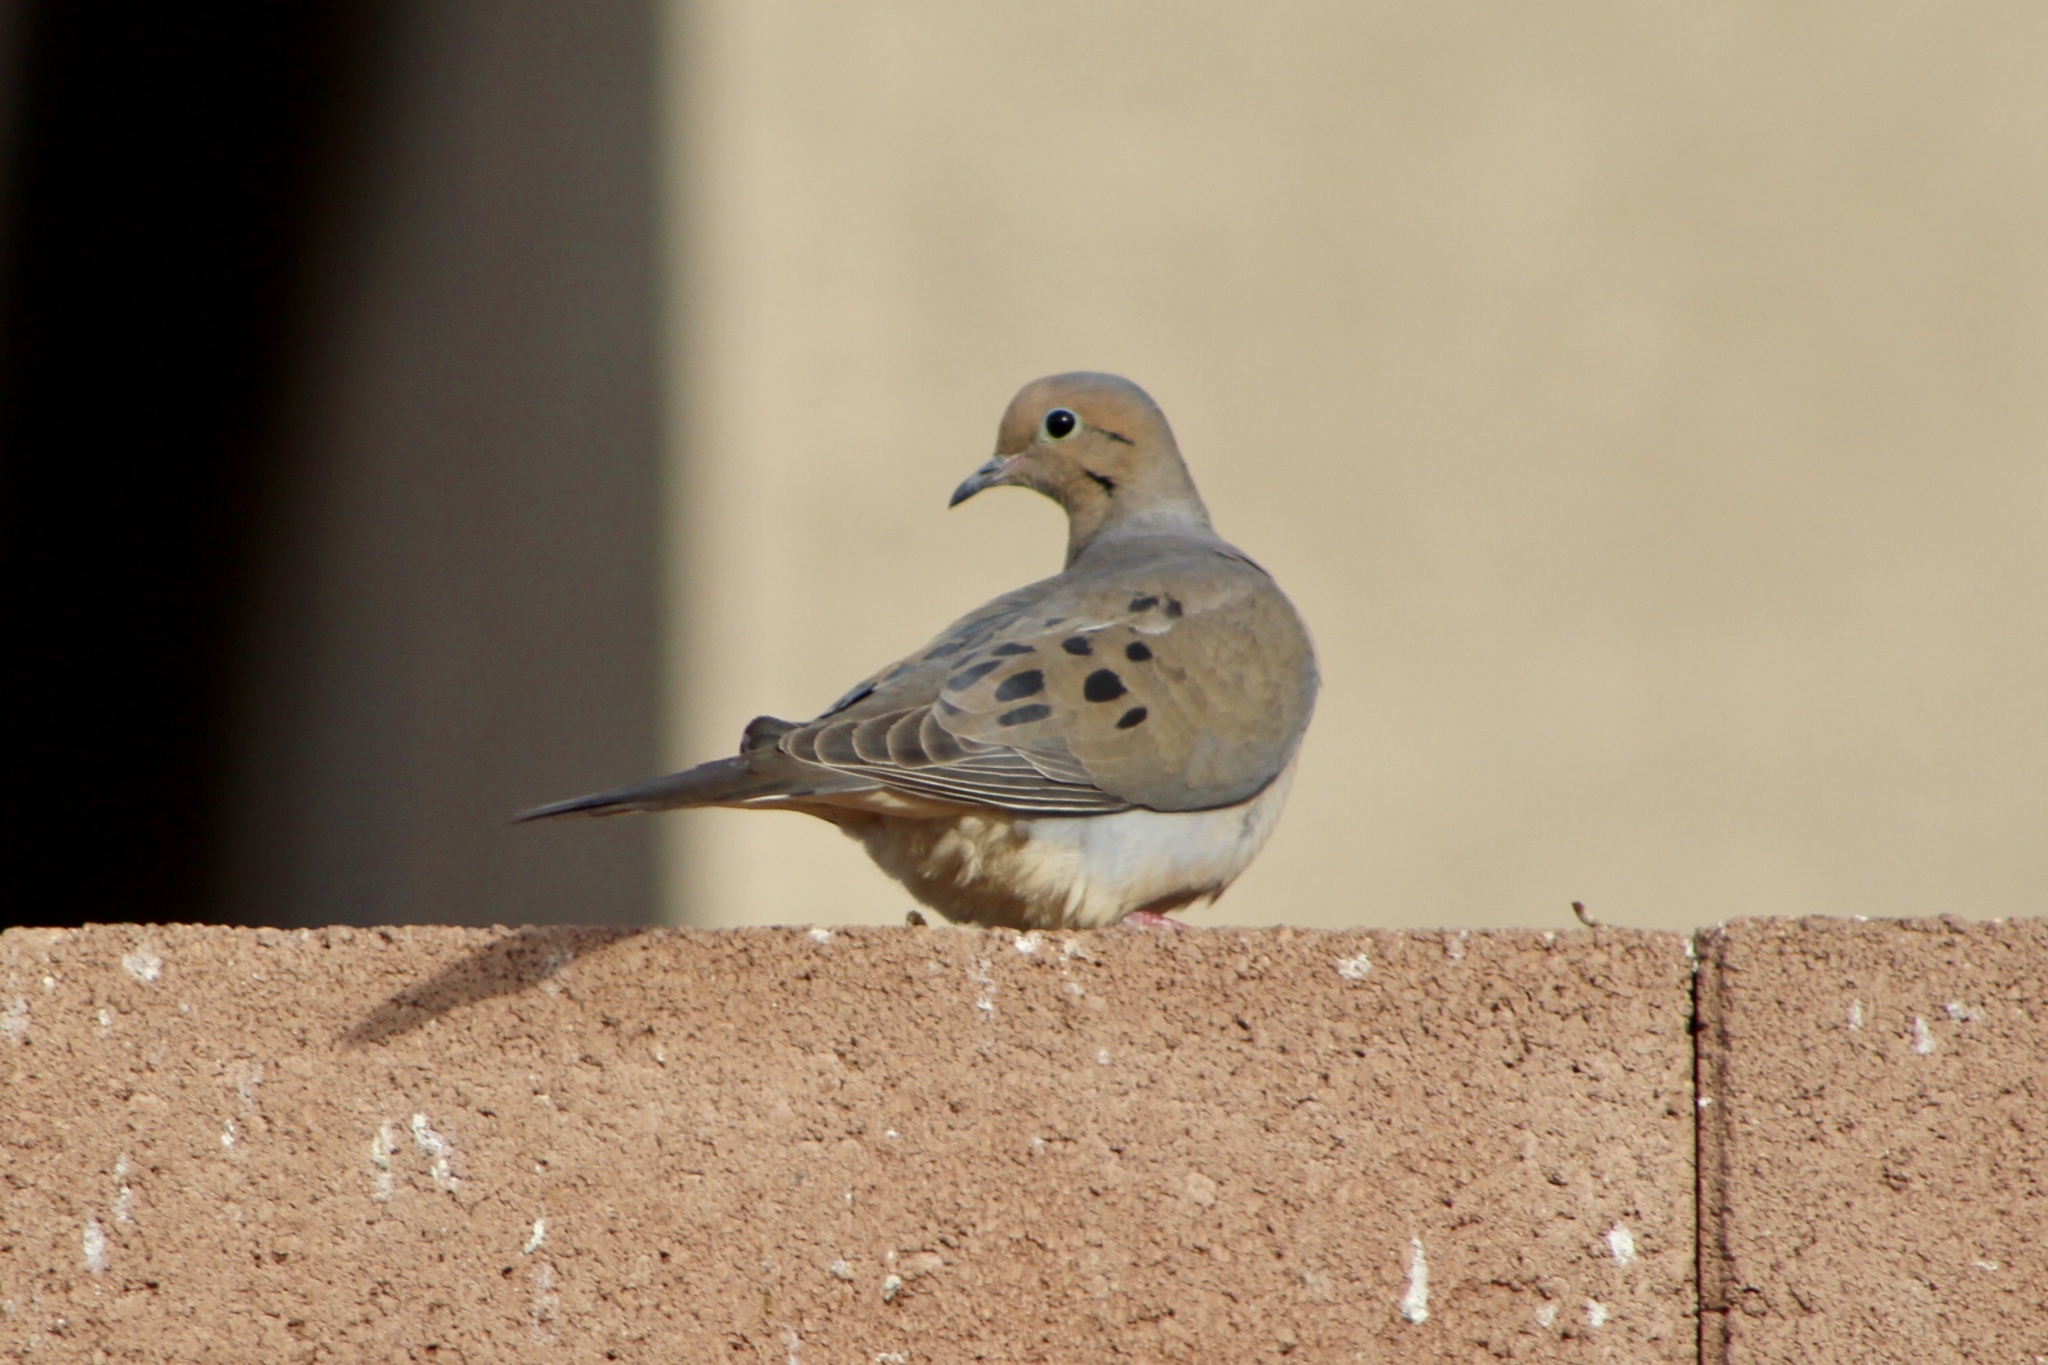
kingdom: Animalia
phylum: Chordata
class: Aves
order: Columbiformes
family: Columbidae
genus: Zenaida
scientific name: Zenaida macroura
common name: Mourning dove
